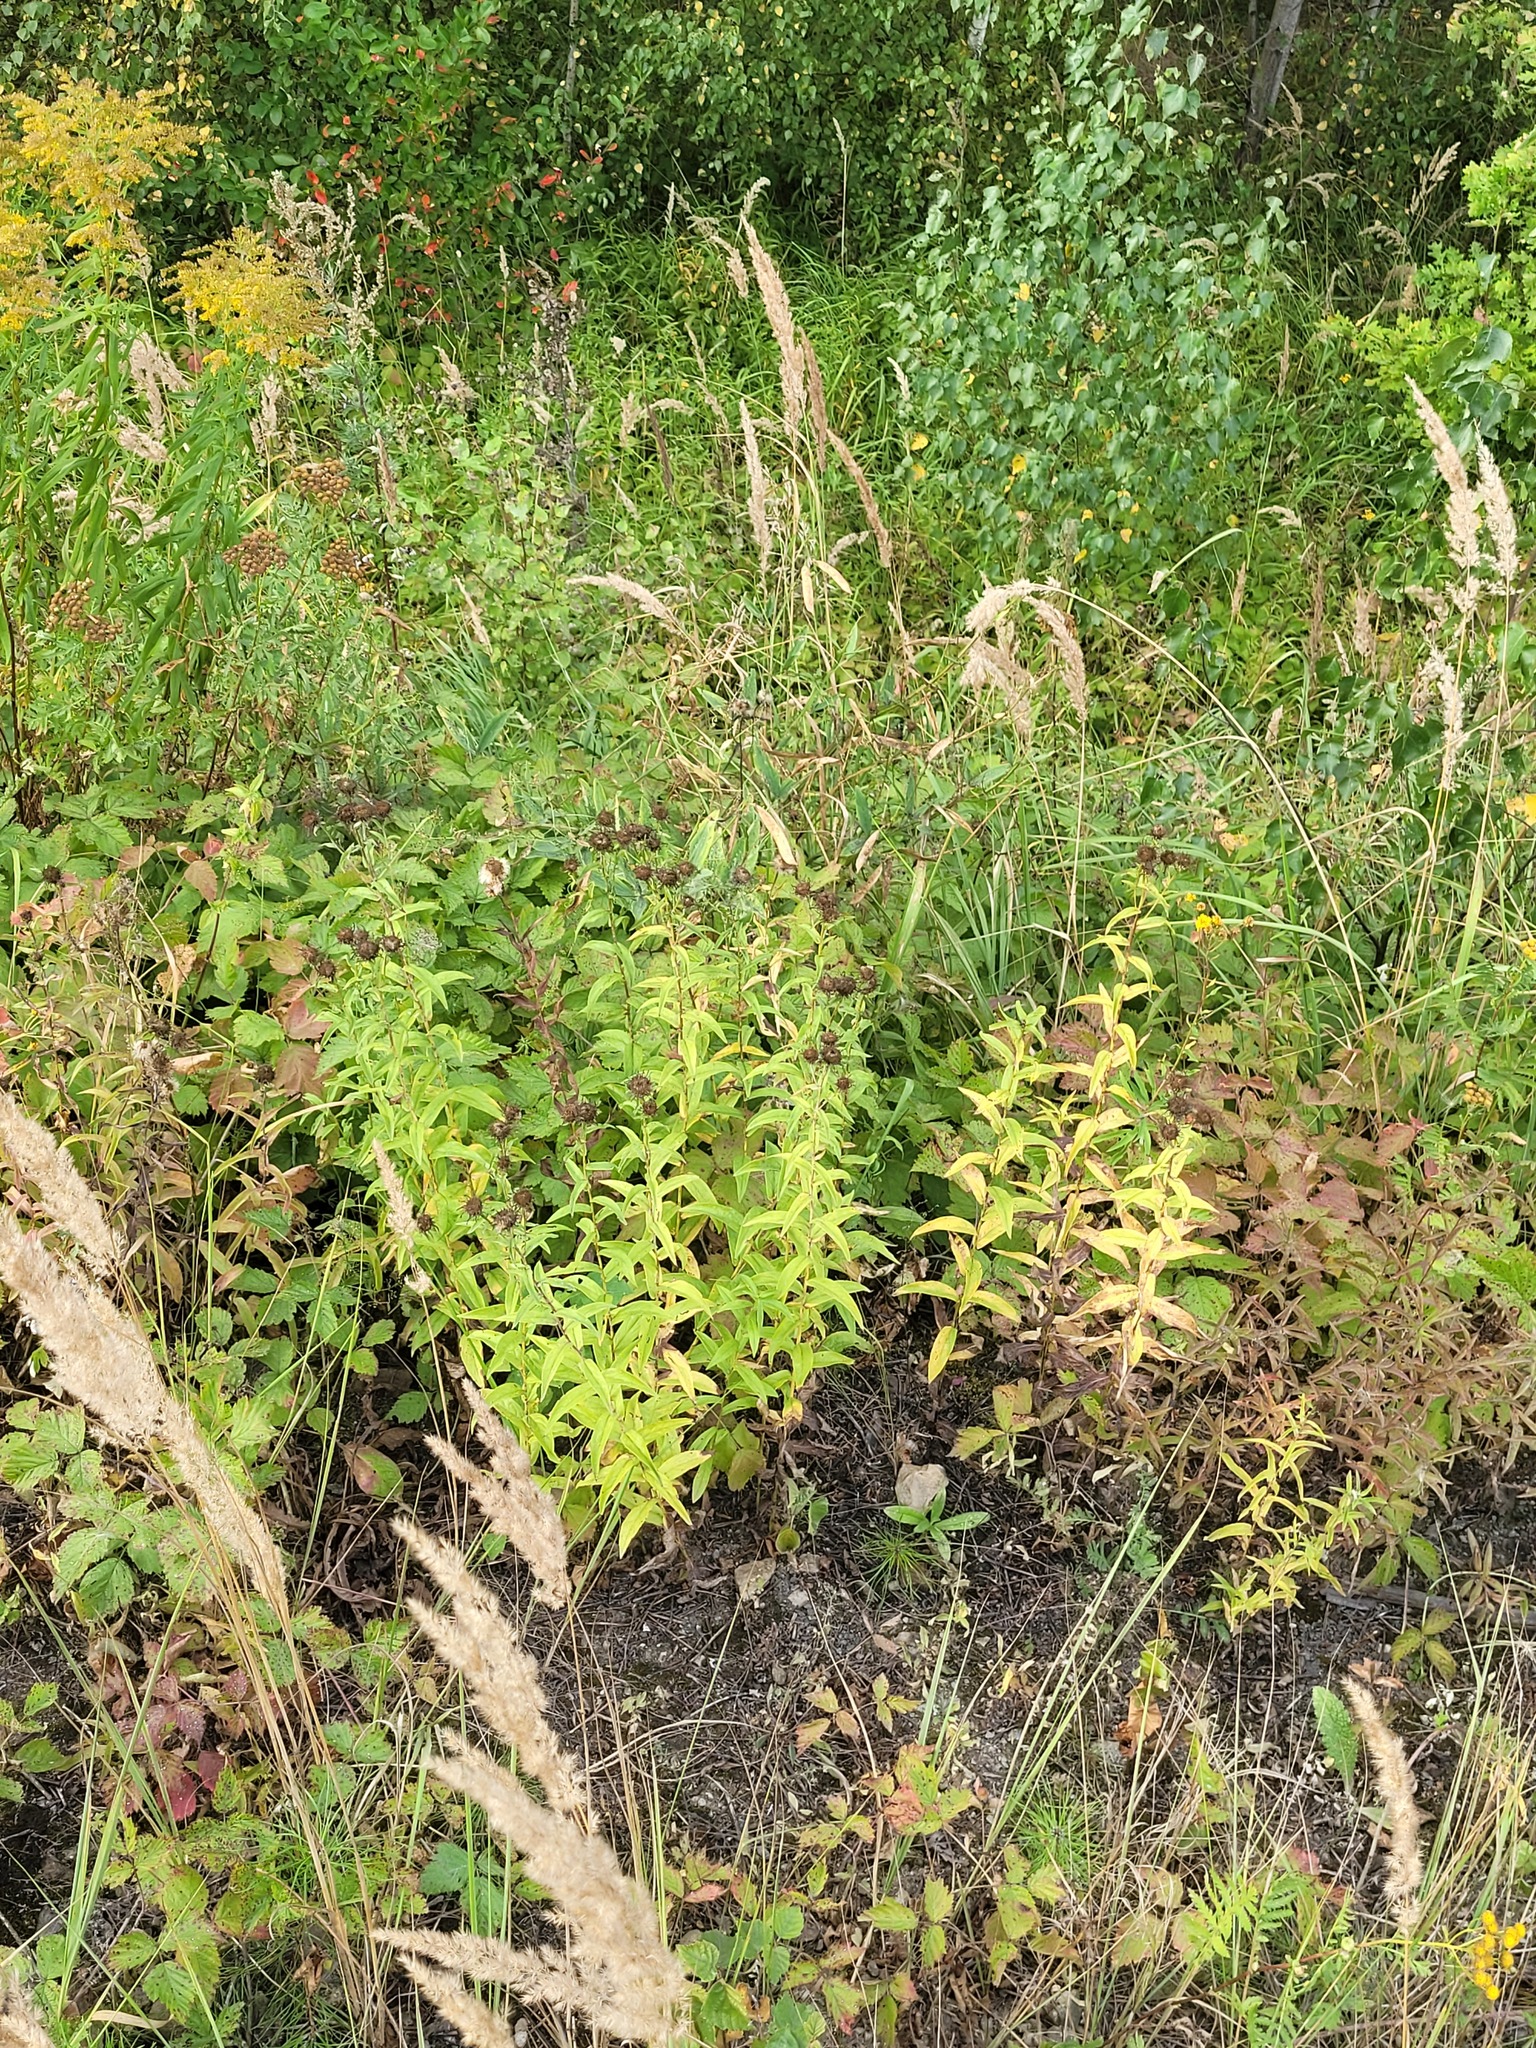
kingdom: Plantae
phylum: Tracheophyta
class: Magnoliopsida
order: Asterales
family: Asteraceae
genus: Pentanema
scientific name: Pentanema salicinum
